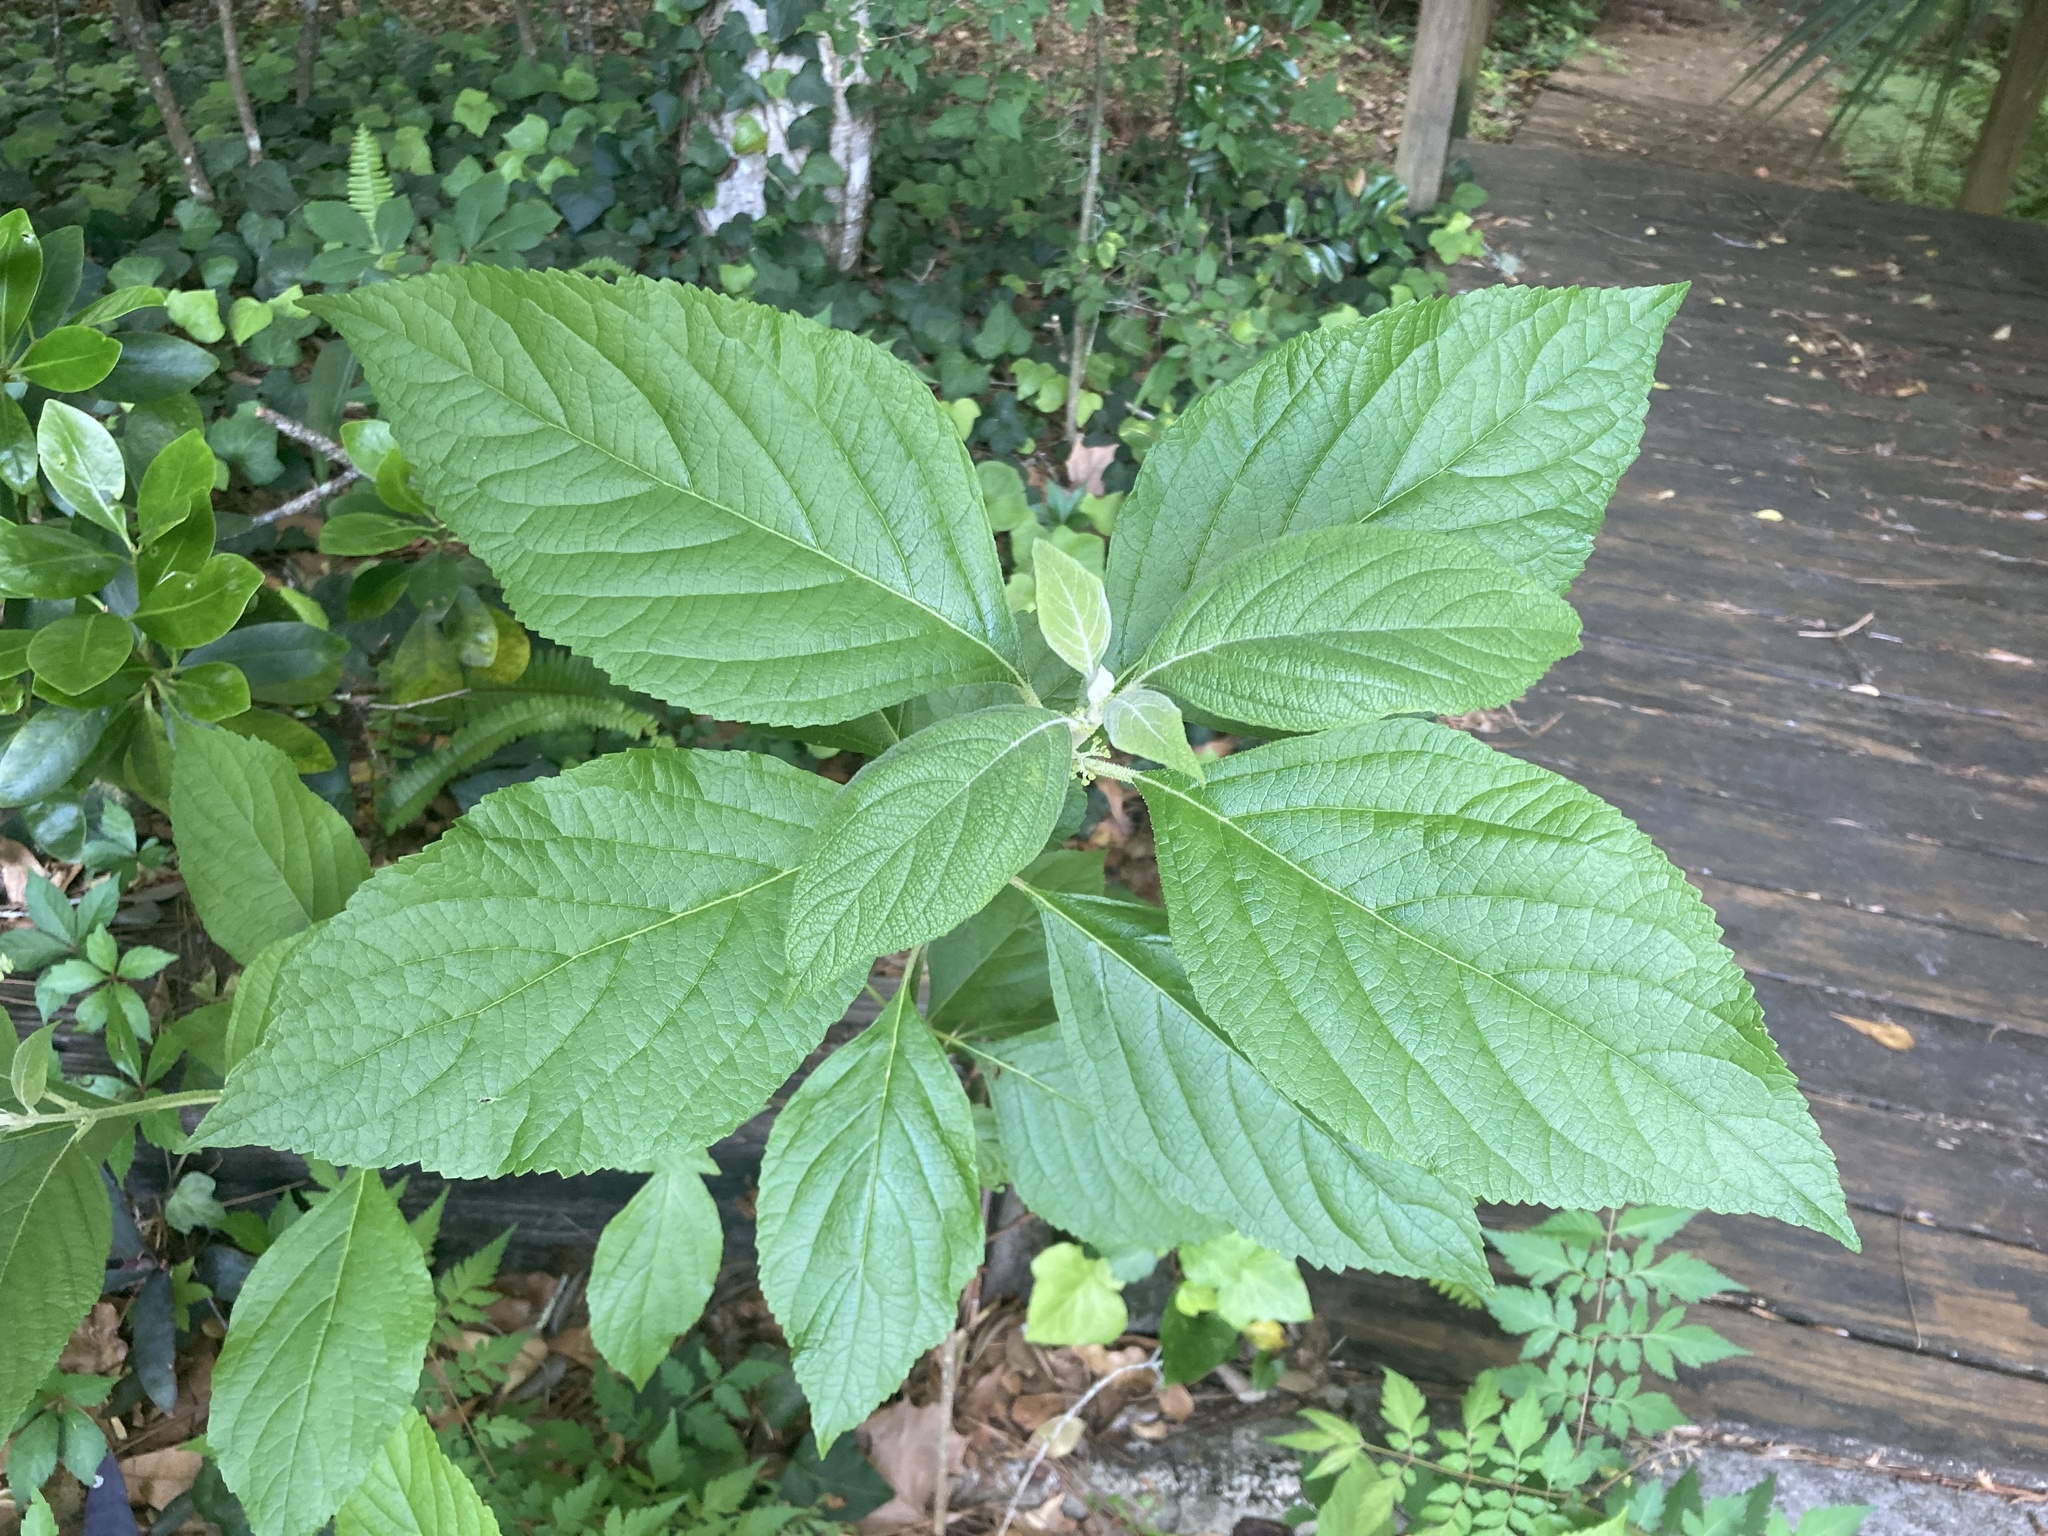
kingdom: Plantae
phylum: Tracheophyta
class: Magnoliopsida
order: Lamiales
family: Lamiaceae
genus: Callicarpa
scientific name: Callicarpa americana
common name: American beautyberry
